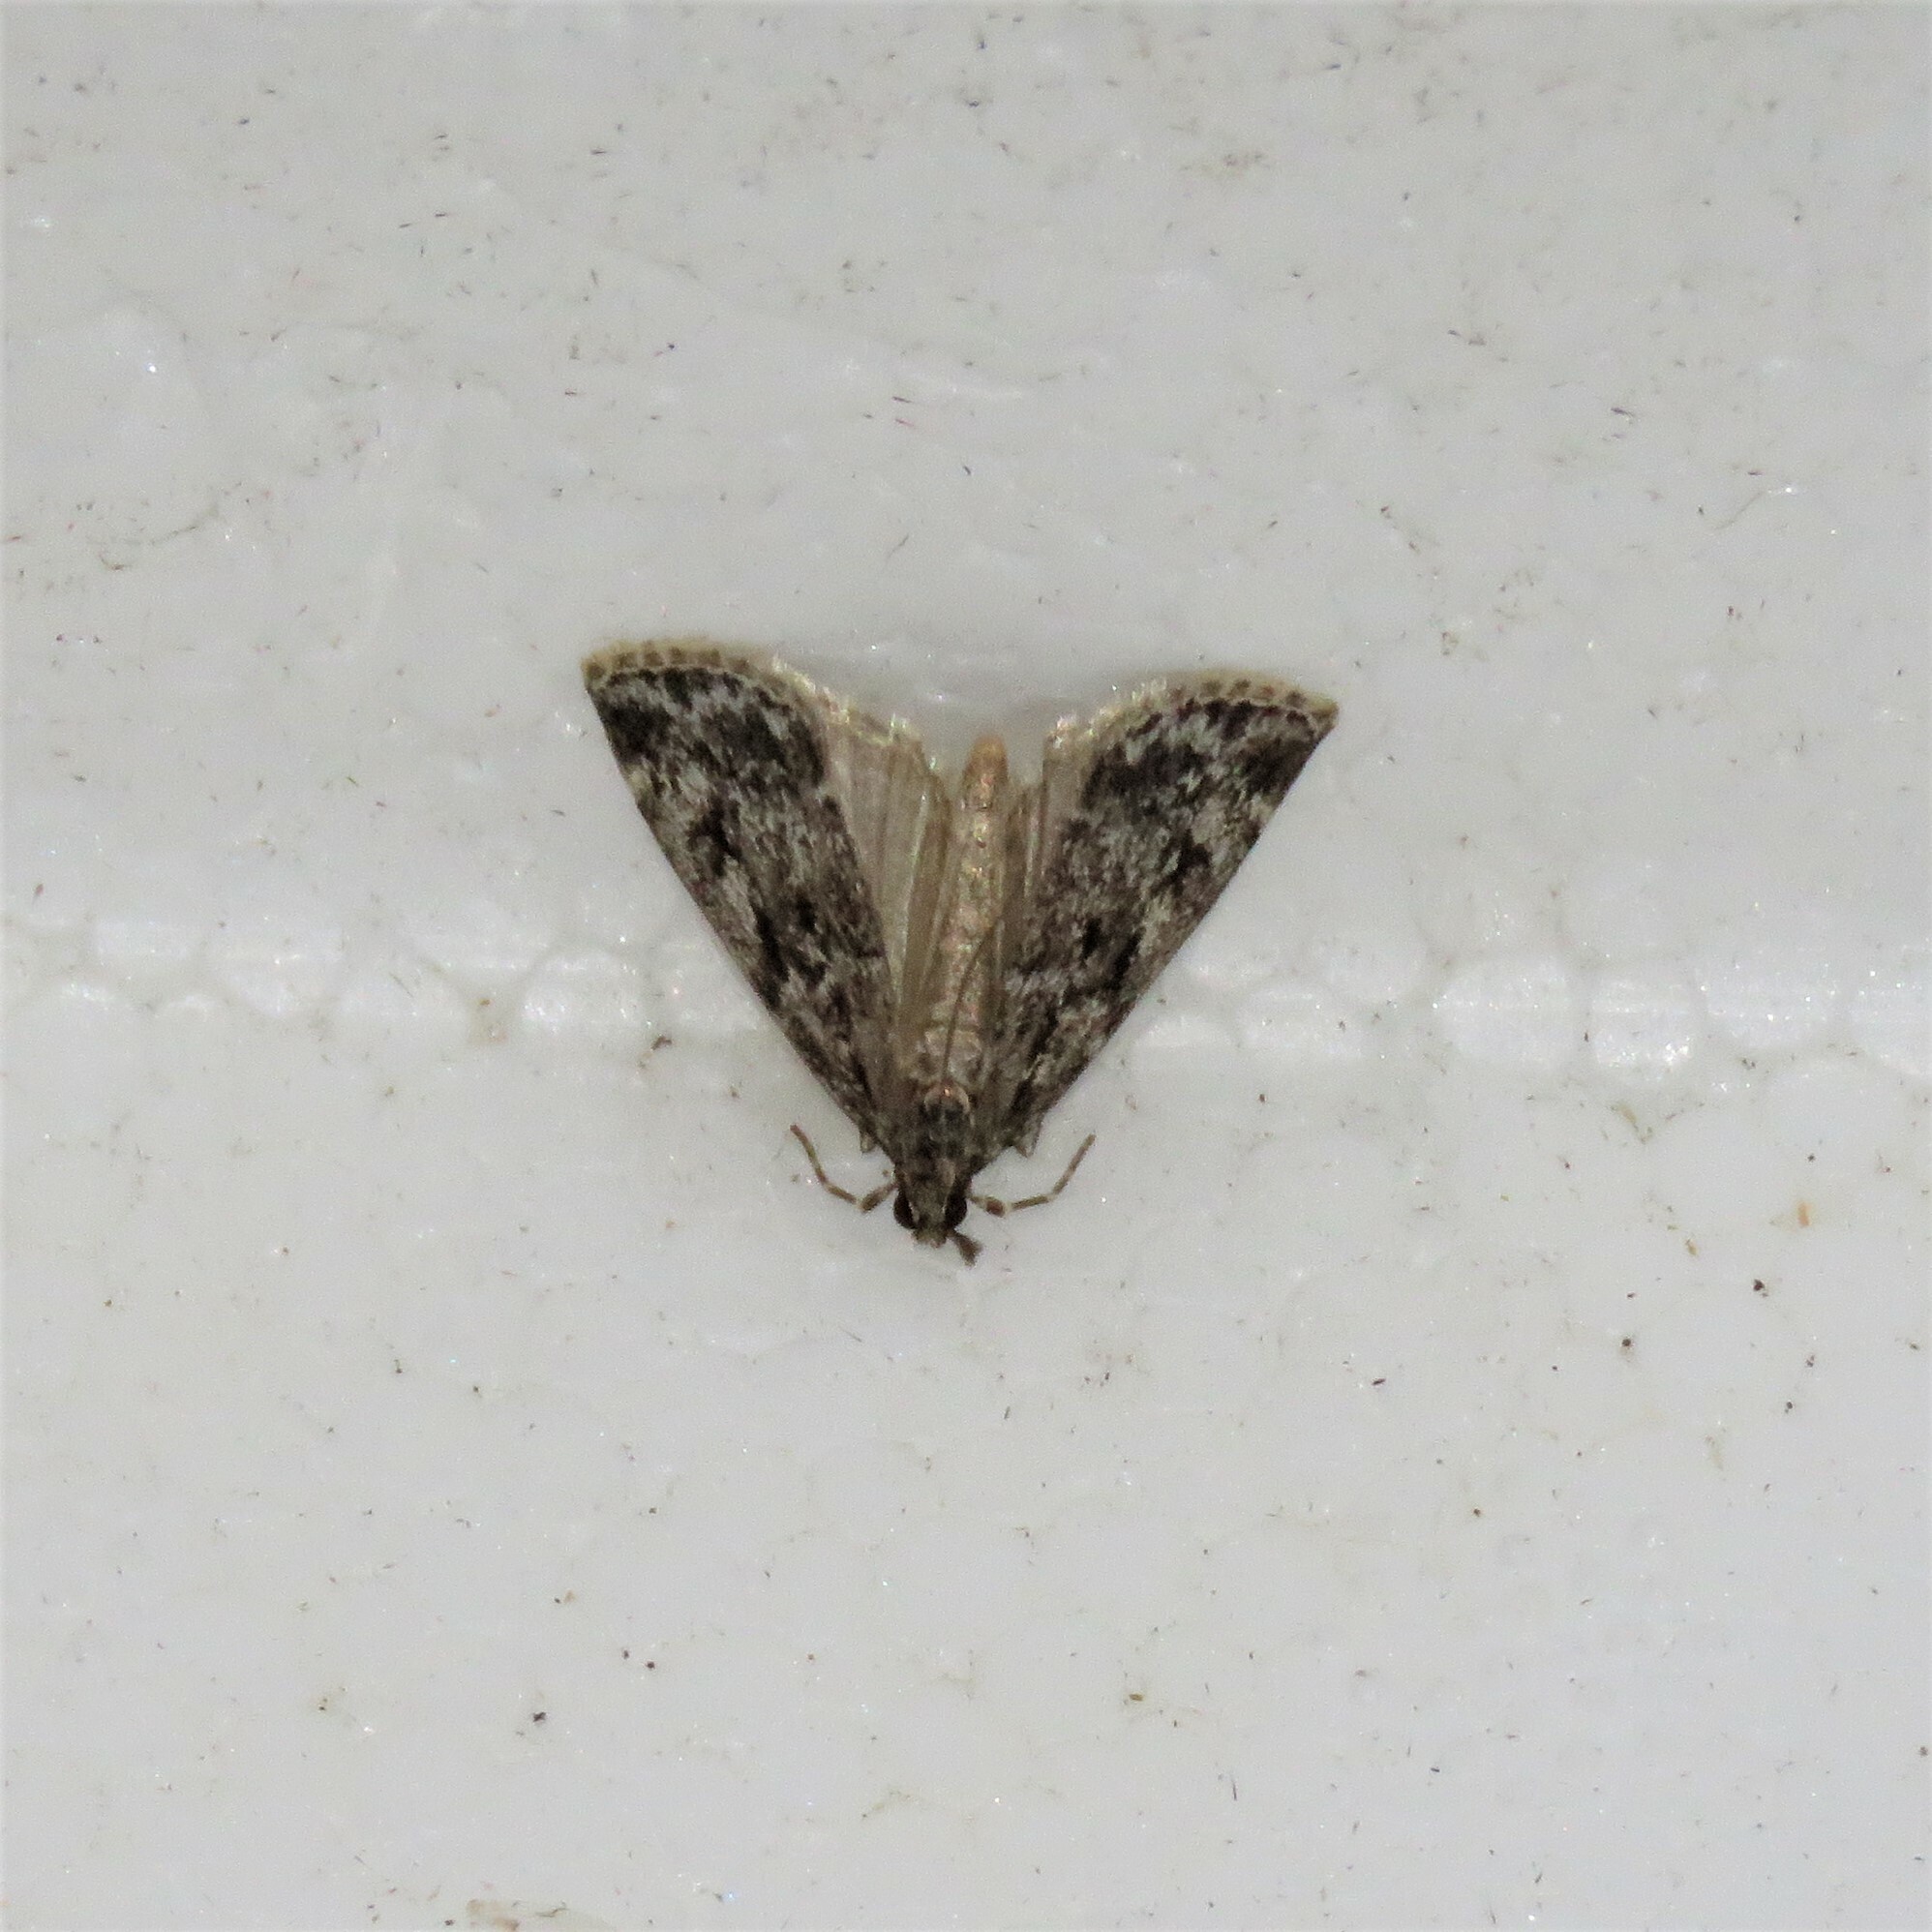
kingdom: Animalia
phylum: Arthropoda
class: Insecta
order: Lepidoptera
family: Crambidae
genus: Eudonia
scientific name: Eudonia truncicolella
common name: Ground-moss grey
